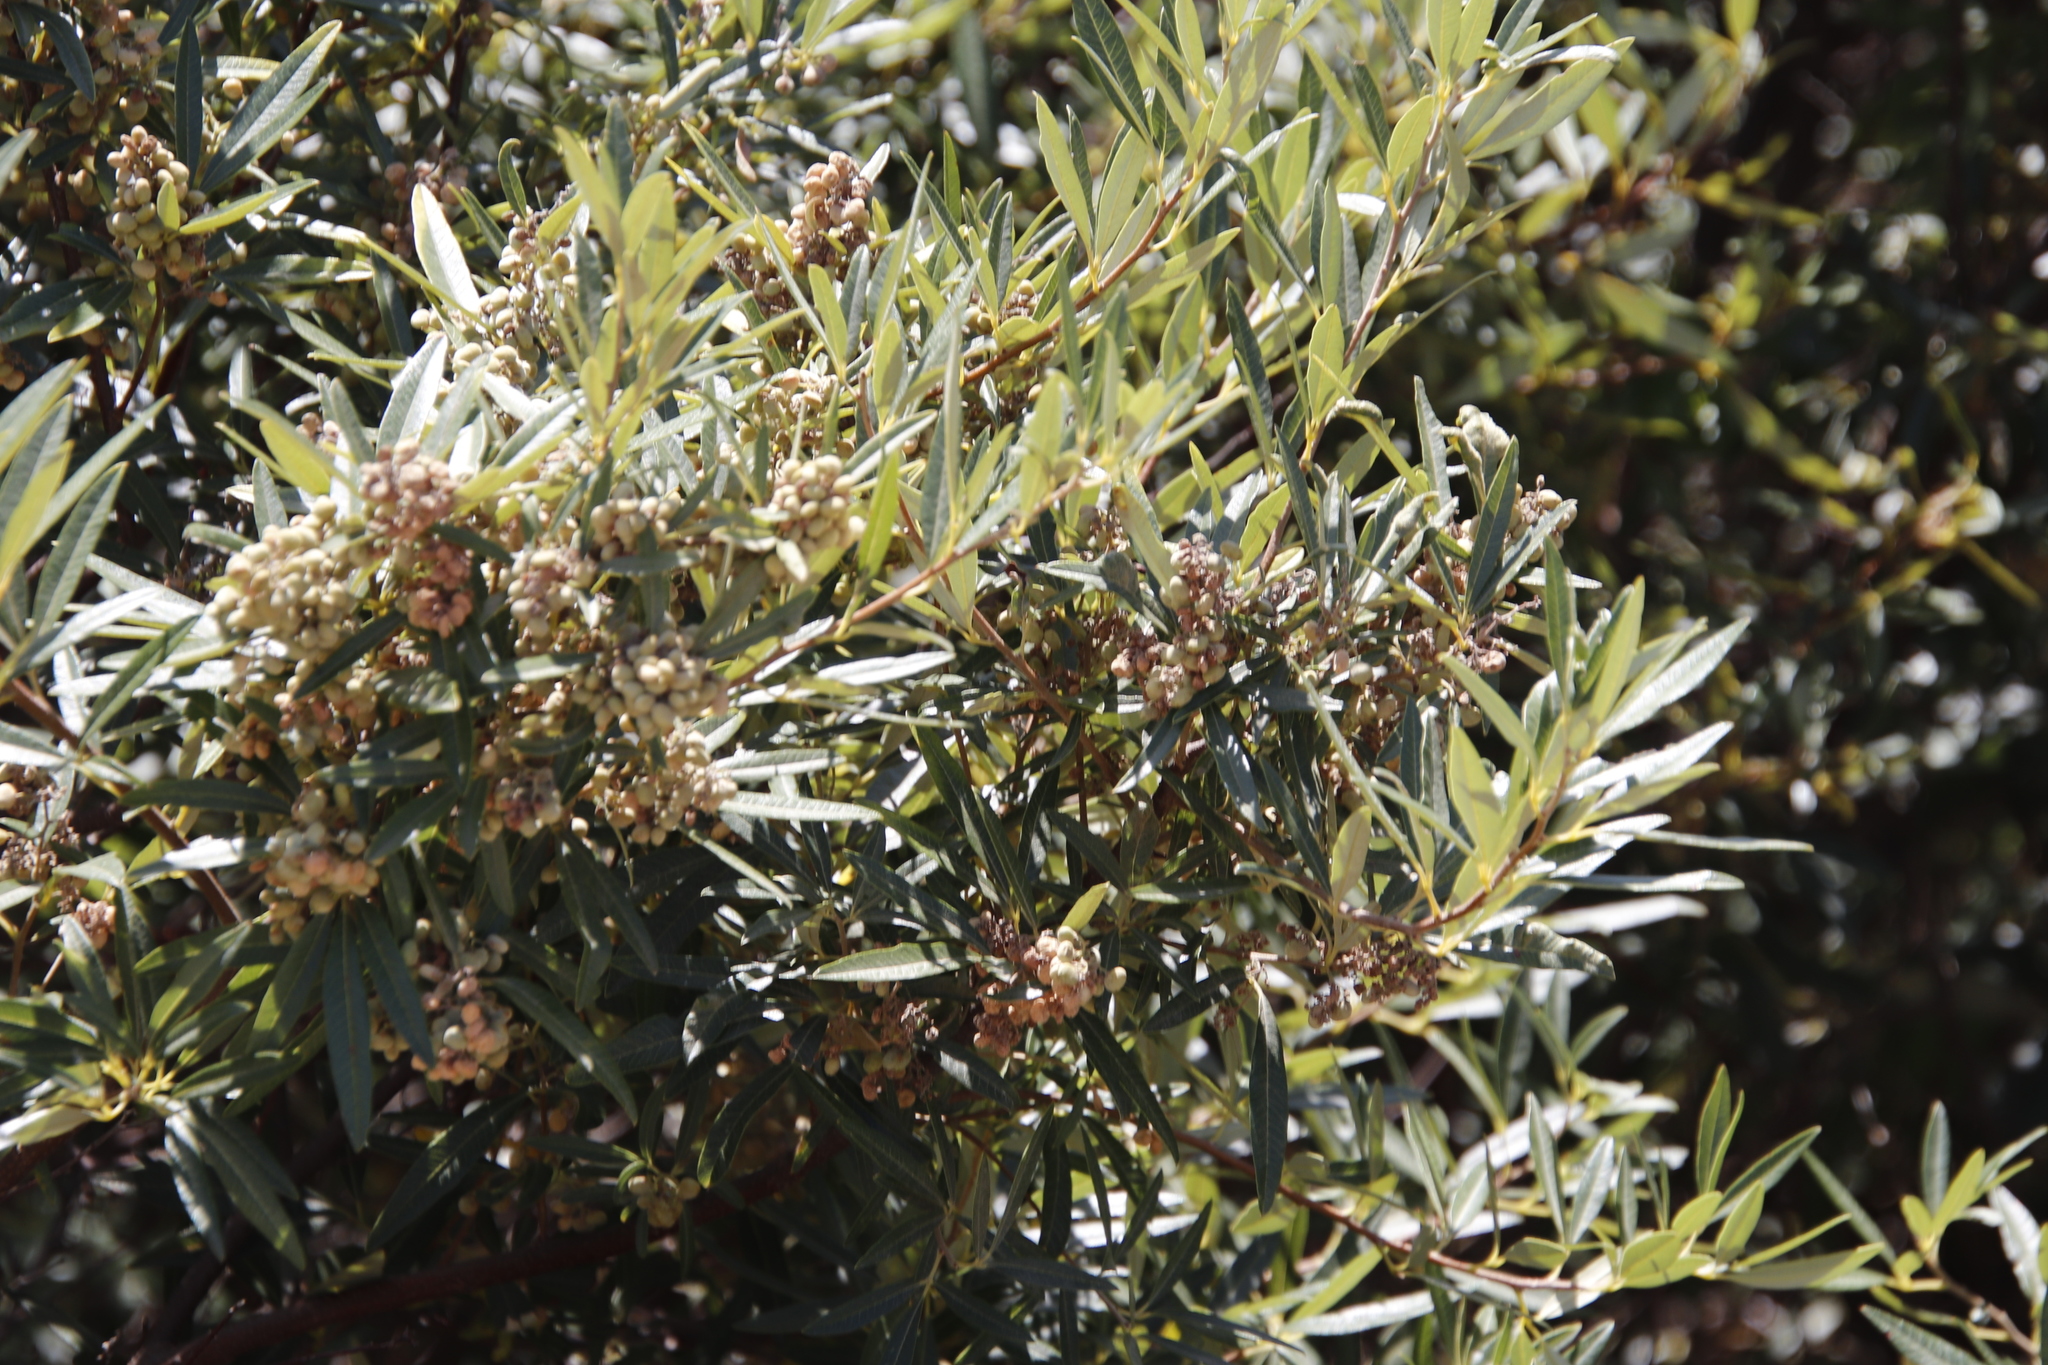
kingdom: Plantae
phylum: Tracheophyta
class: Magnoliopsida
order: Sapindales
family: Anacardiaceae
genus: Searsia
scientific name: Searsia angustifolia
